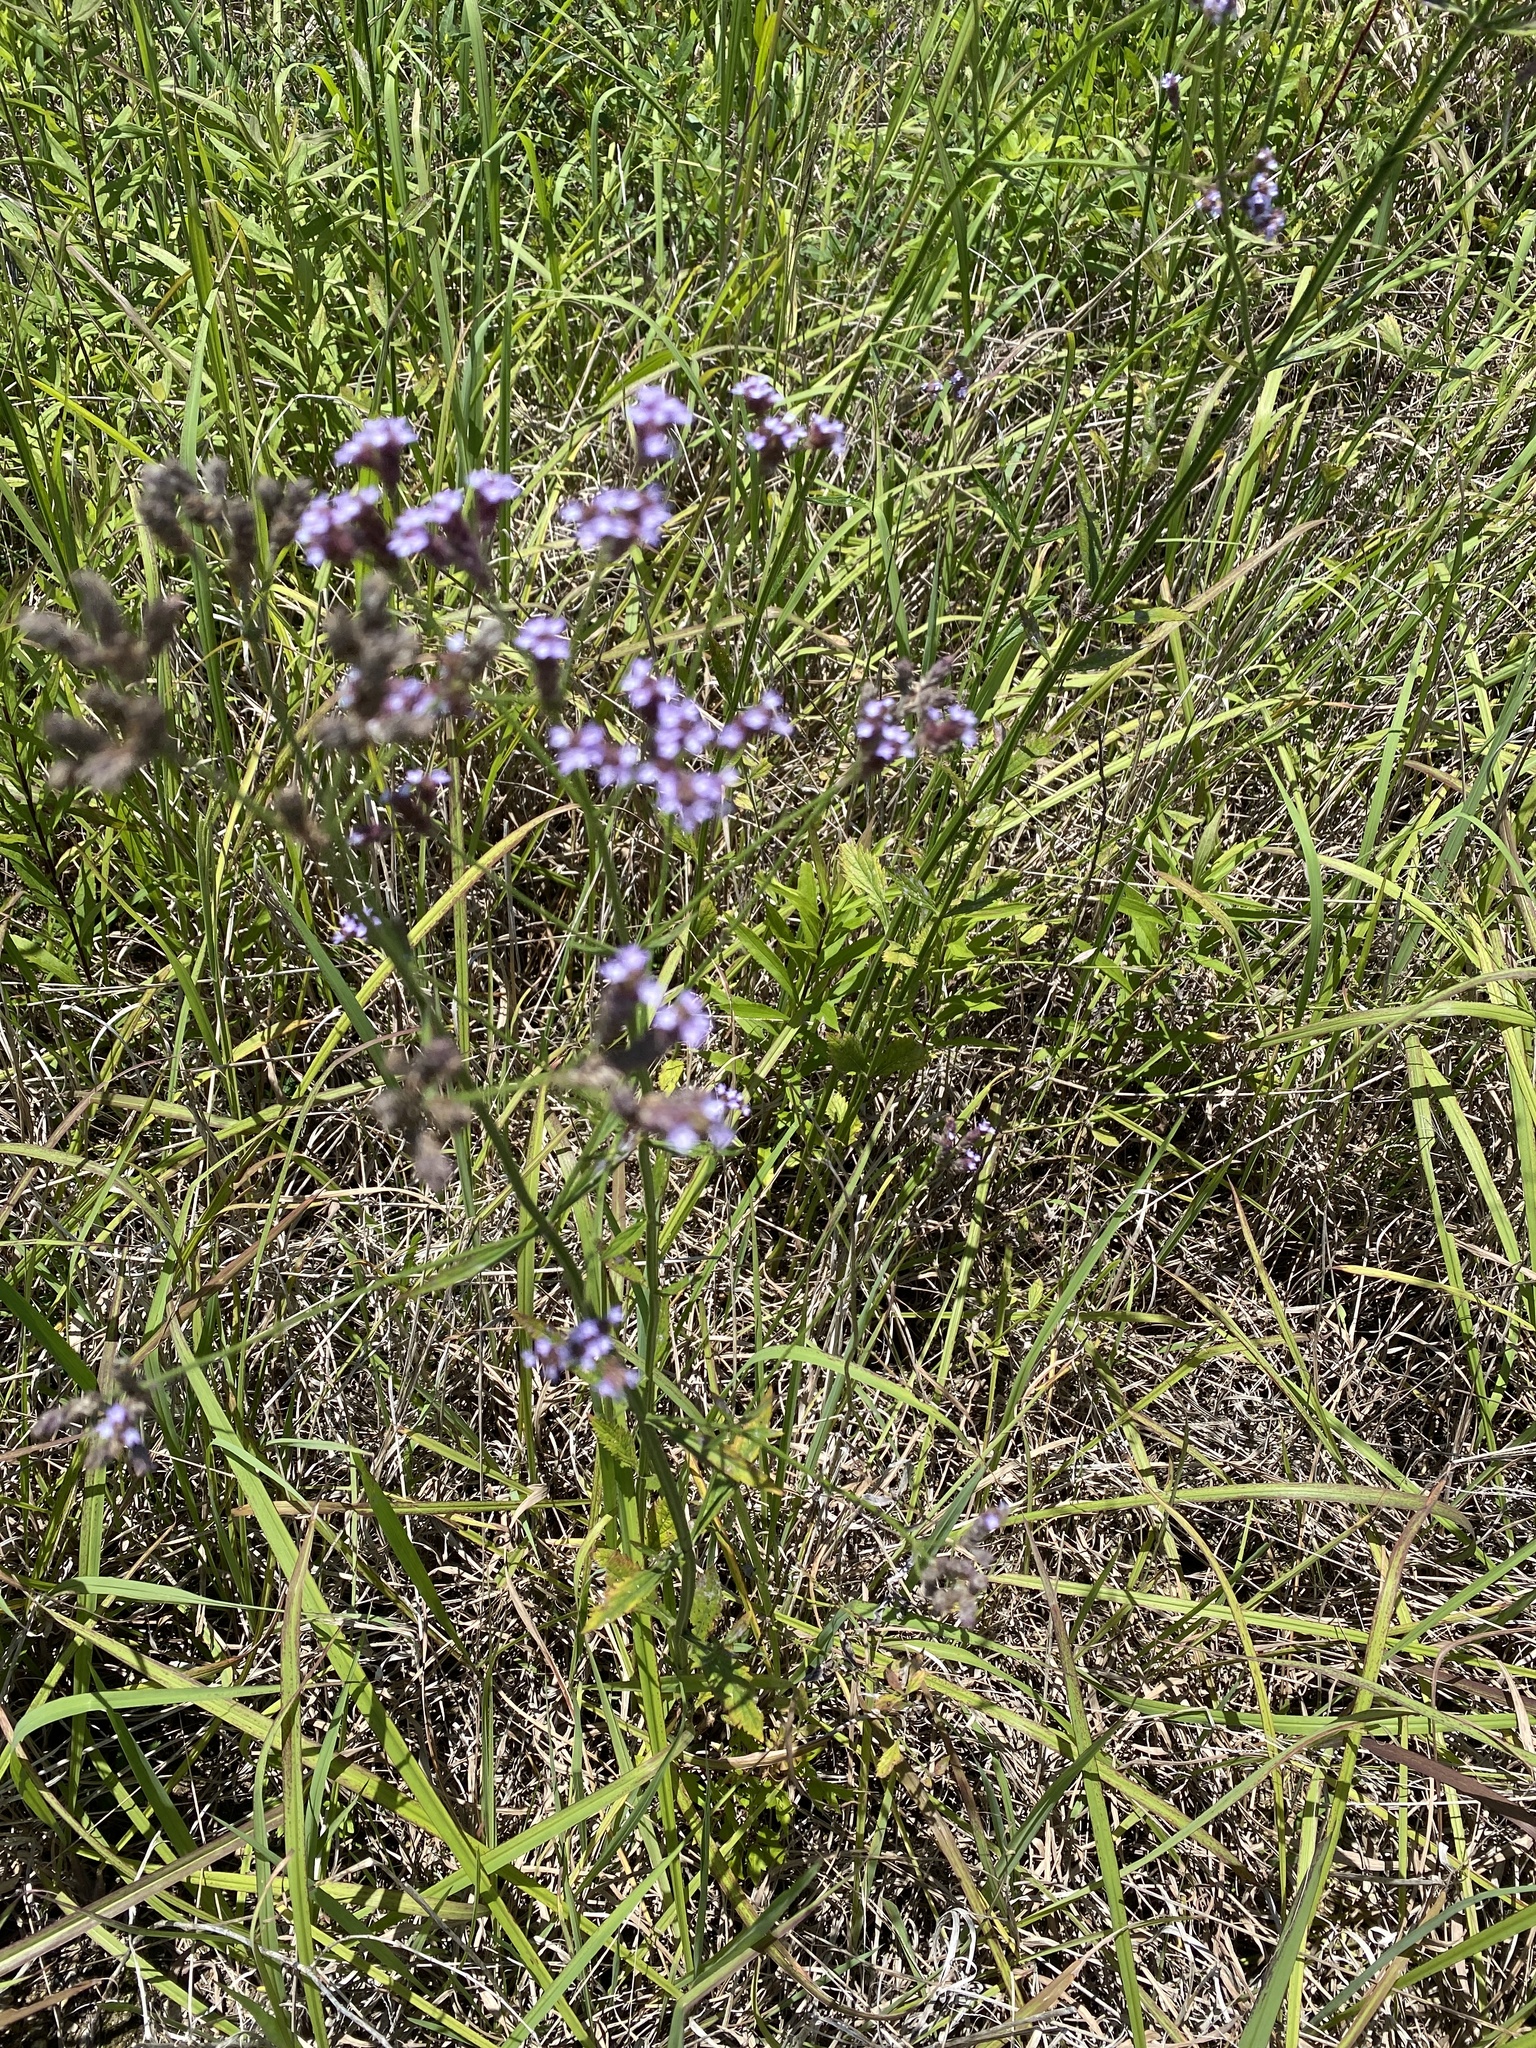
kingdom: Plantae
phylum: Tracheophyta
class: Magnoliopsida
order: Lamiales
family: Verbenaceae
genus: Verbena
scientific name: Verbena brasiliensis
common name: Brazilian vervain
